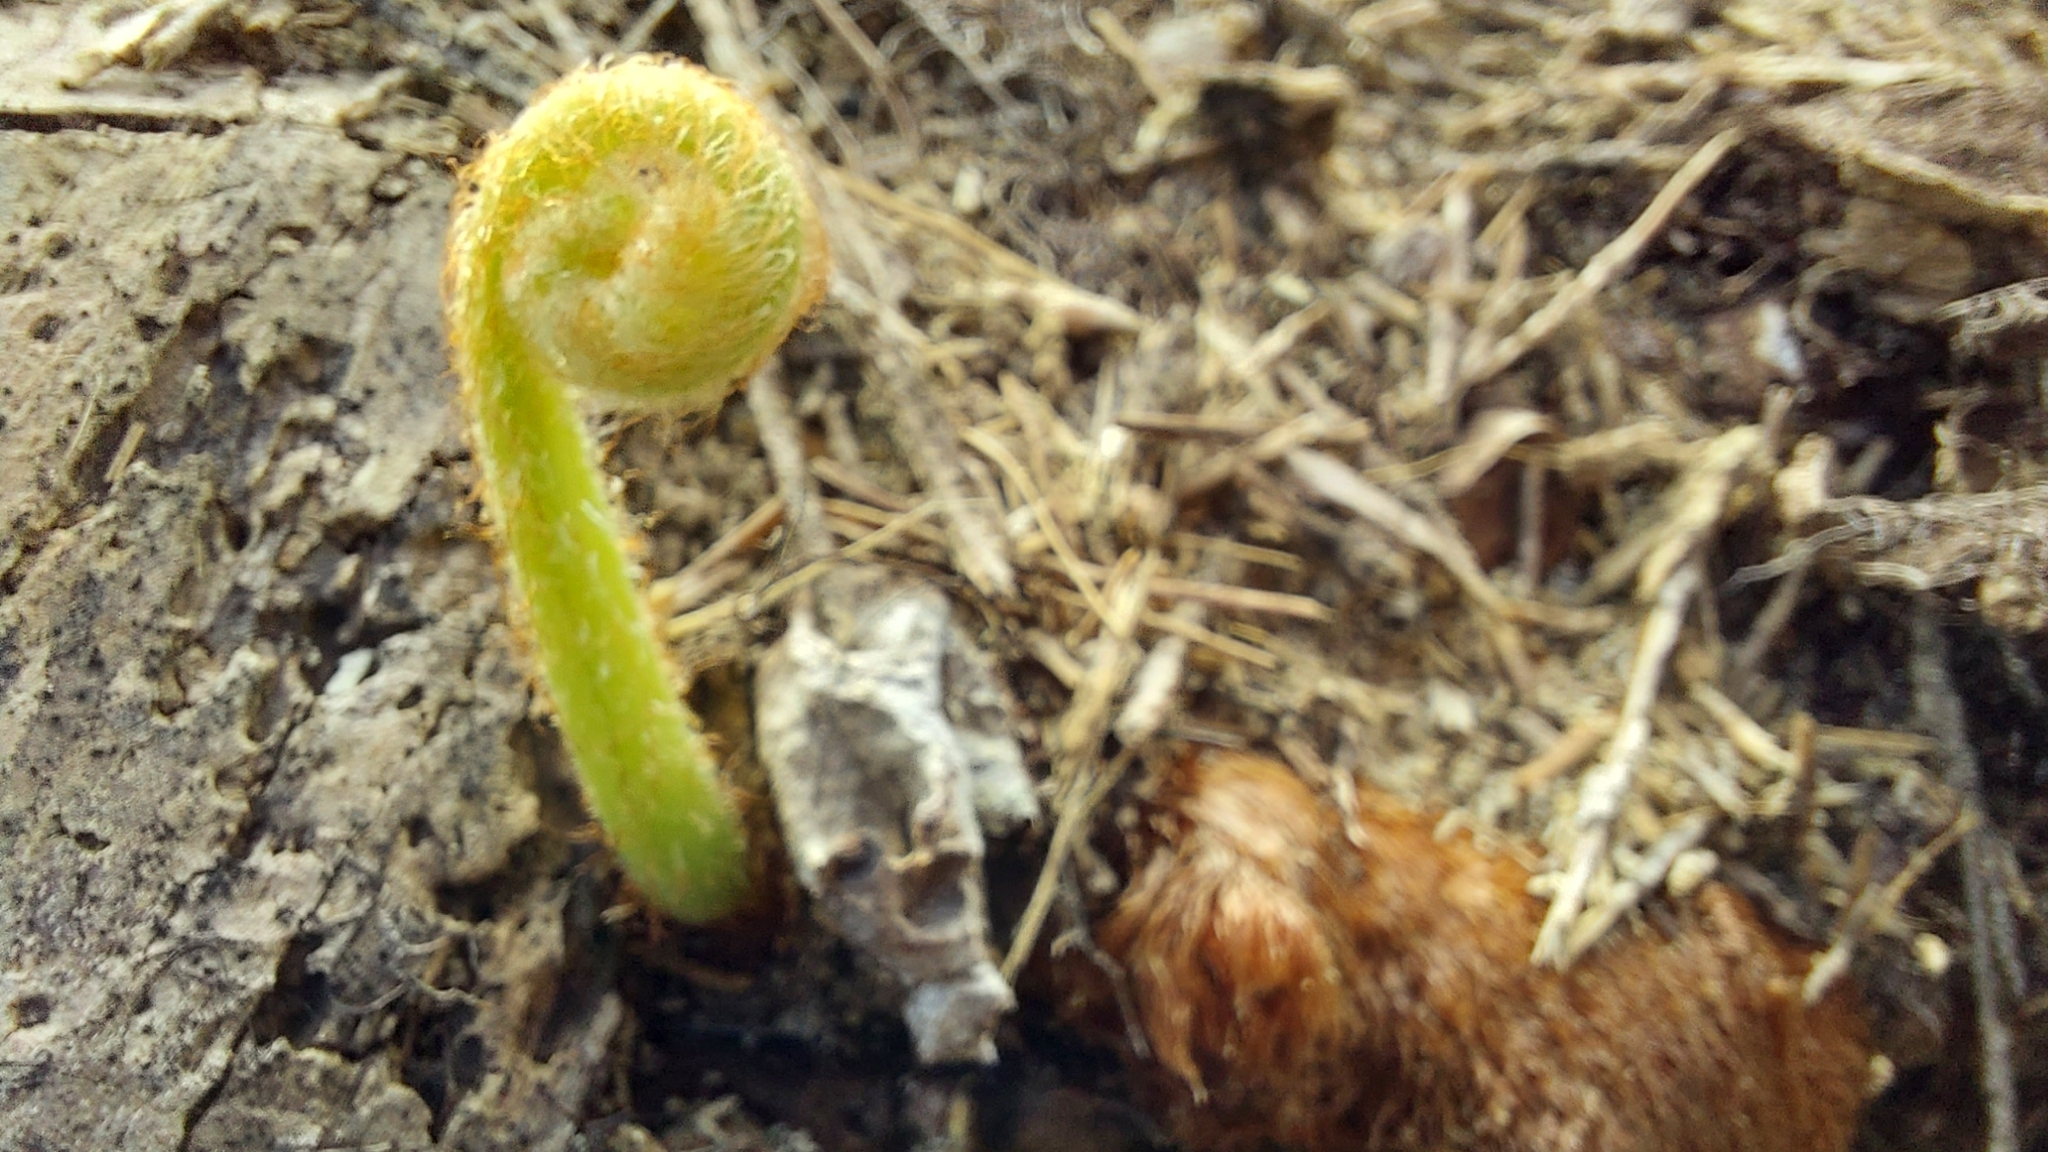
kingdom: Plantae
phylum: Tracheophyta
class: Polypodiopsida
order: Polypodiales
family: Polypodiaceae
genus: Phlebodium
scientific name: Phlebodium aureum
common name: Gold-foot fern
